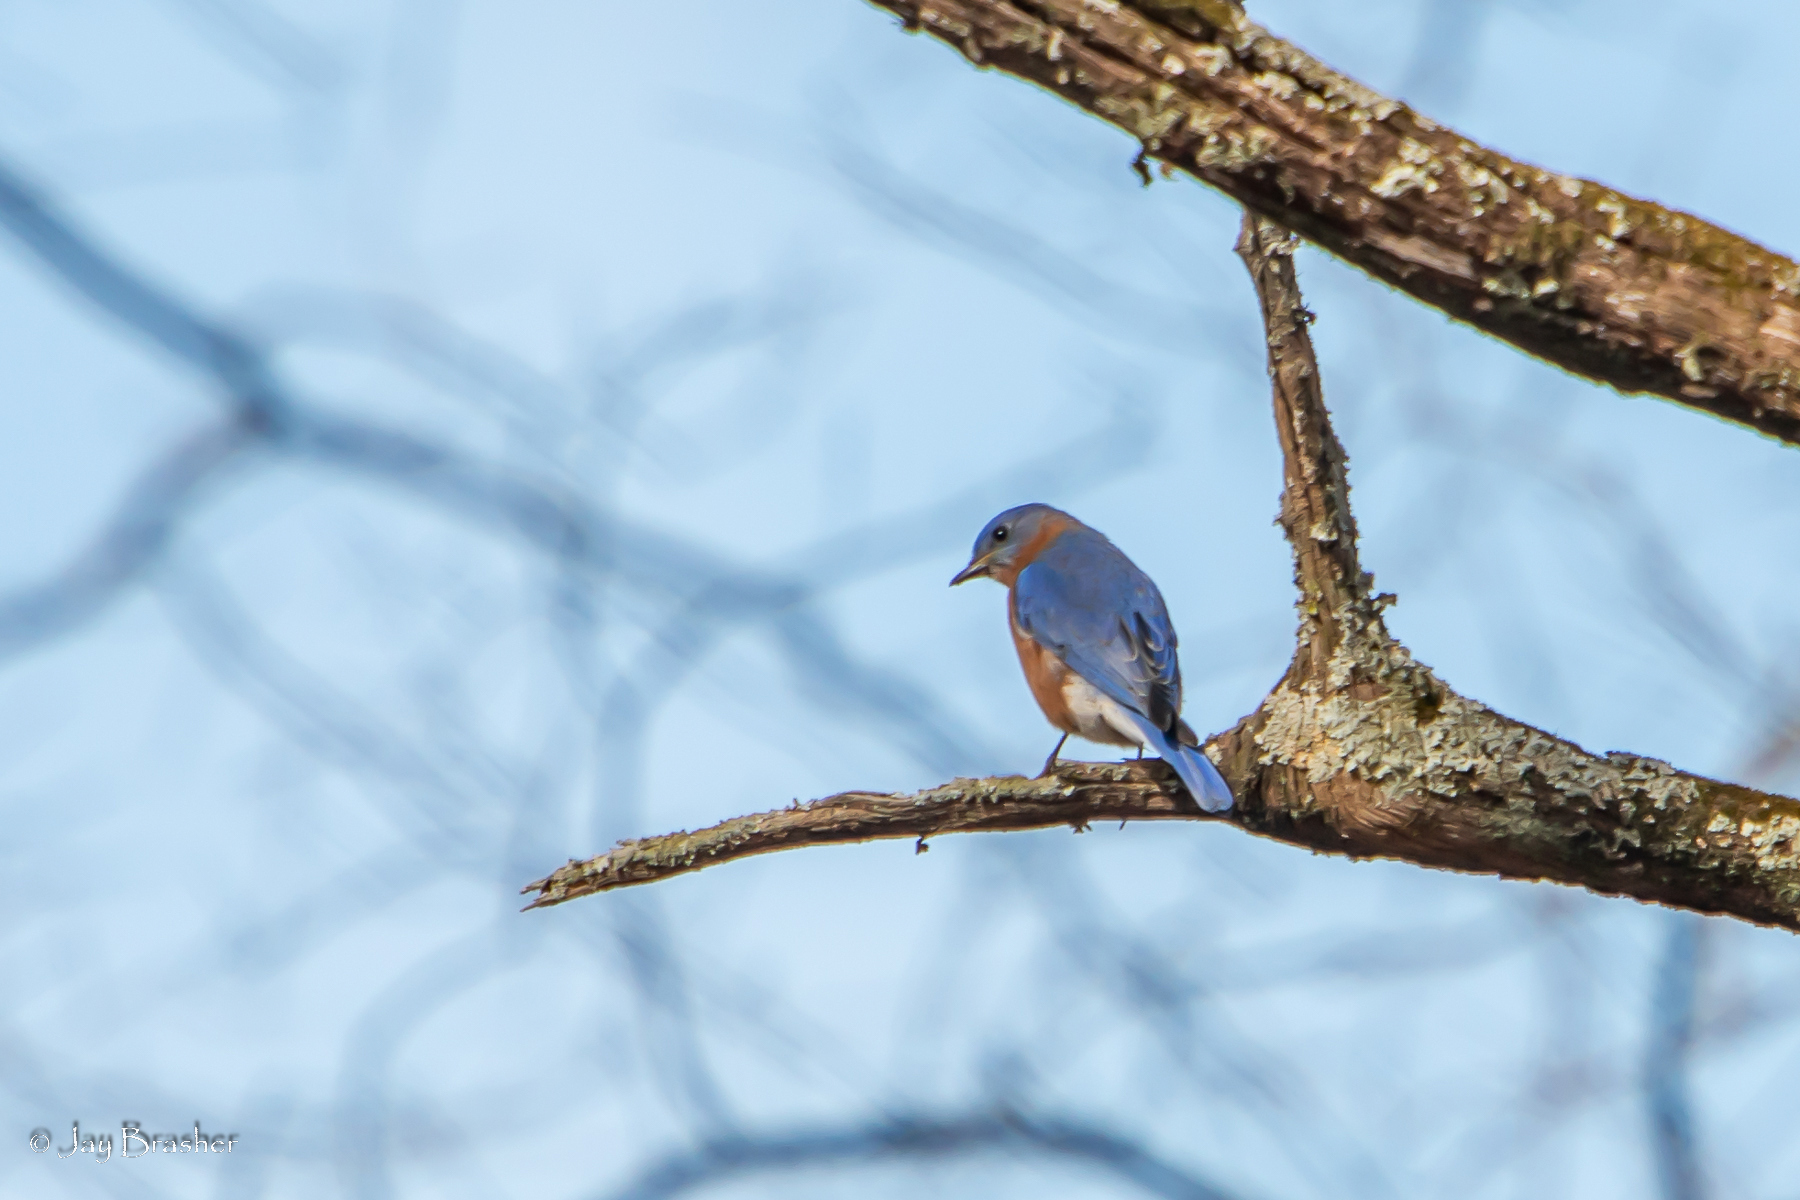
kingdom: Animalia
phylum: Chordata
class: Aves
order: Passeriformes
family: Turdidae
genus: Sialia
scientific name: Sialia sialis
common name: Eastern bluebird
